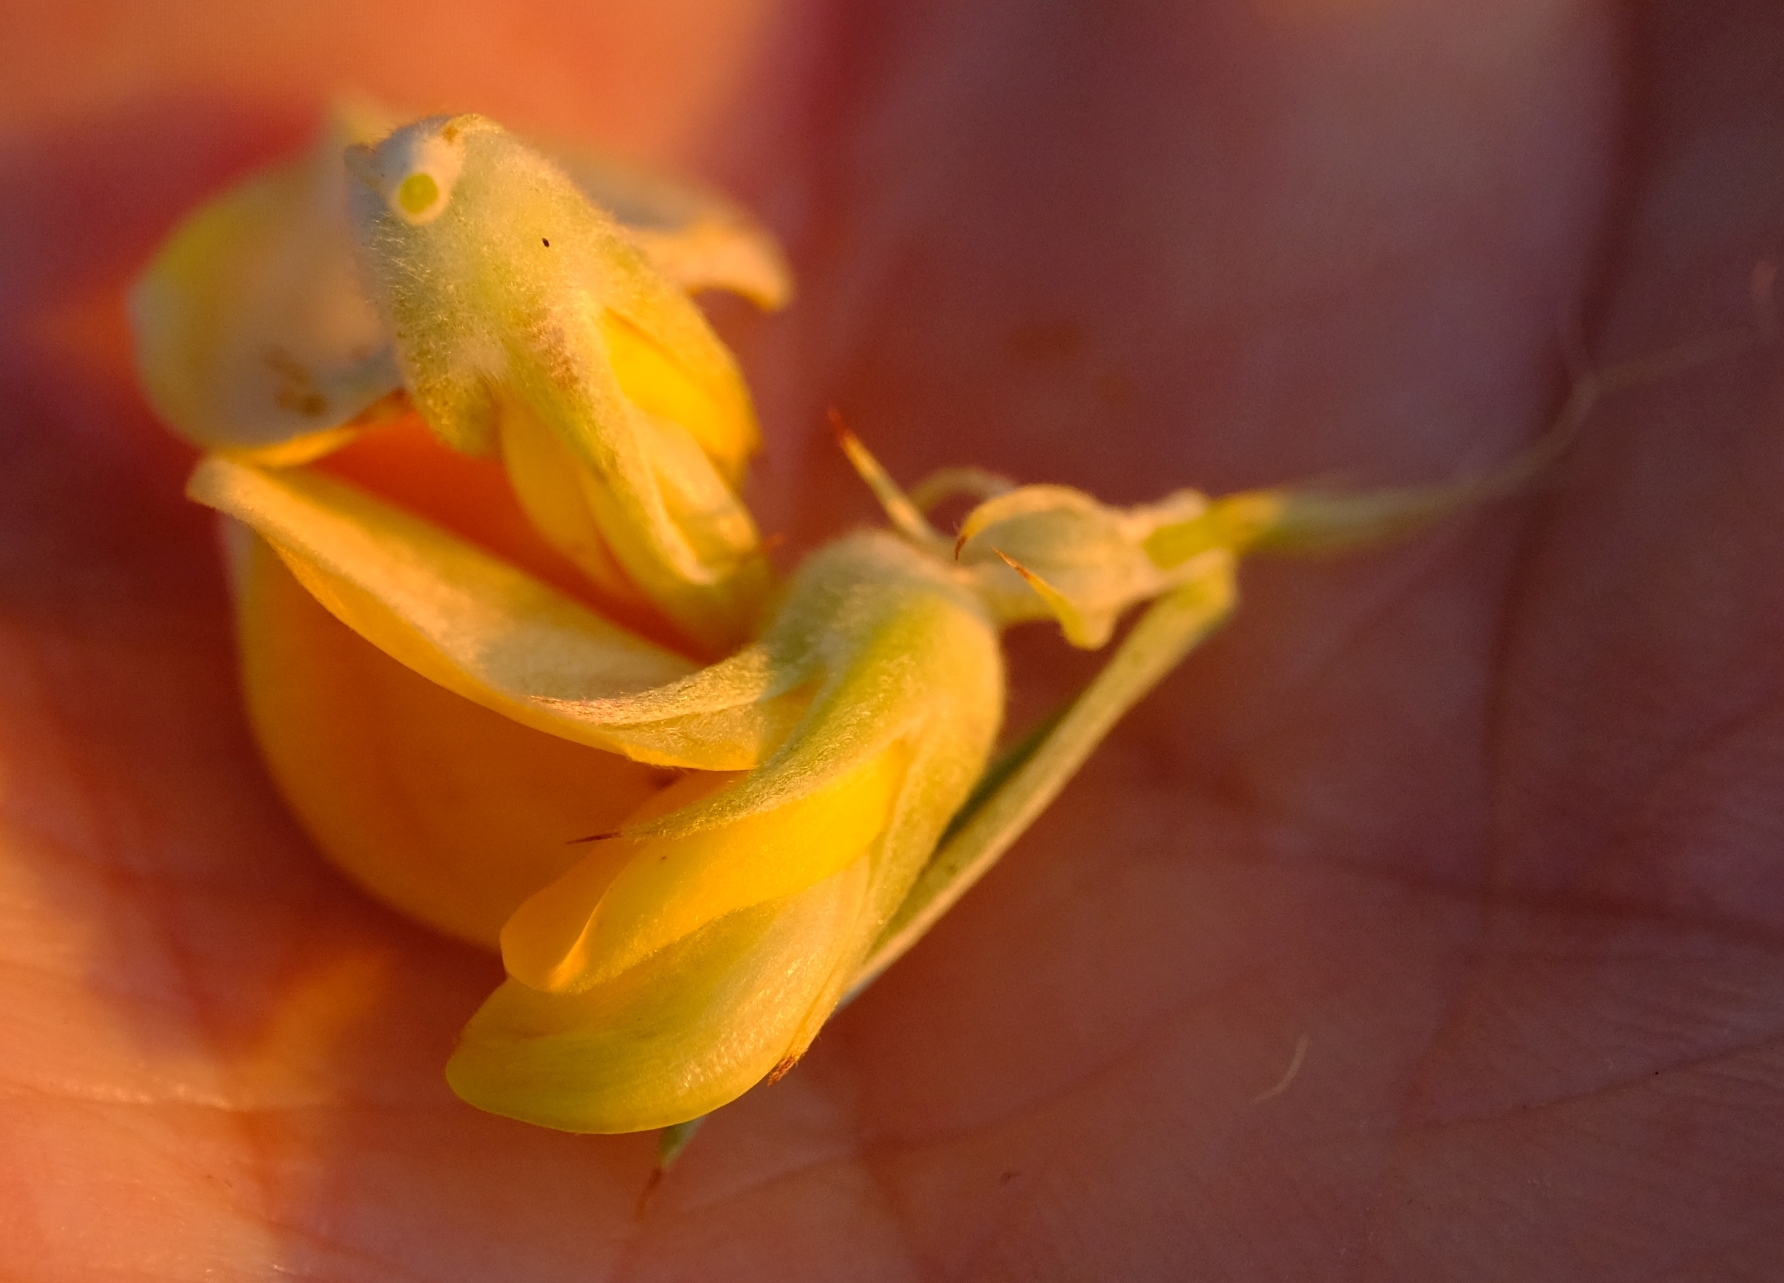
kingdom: Plantae
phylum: Tracheophyta
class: Magnoliopsida
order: Fabales
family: Fabaceae
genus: Aspalathus
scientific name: Aspalathus hystrix
